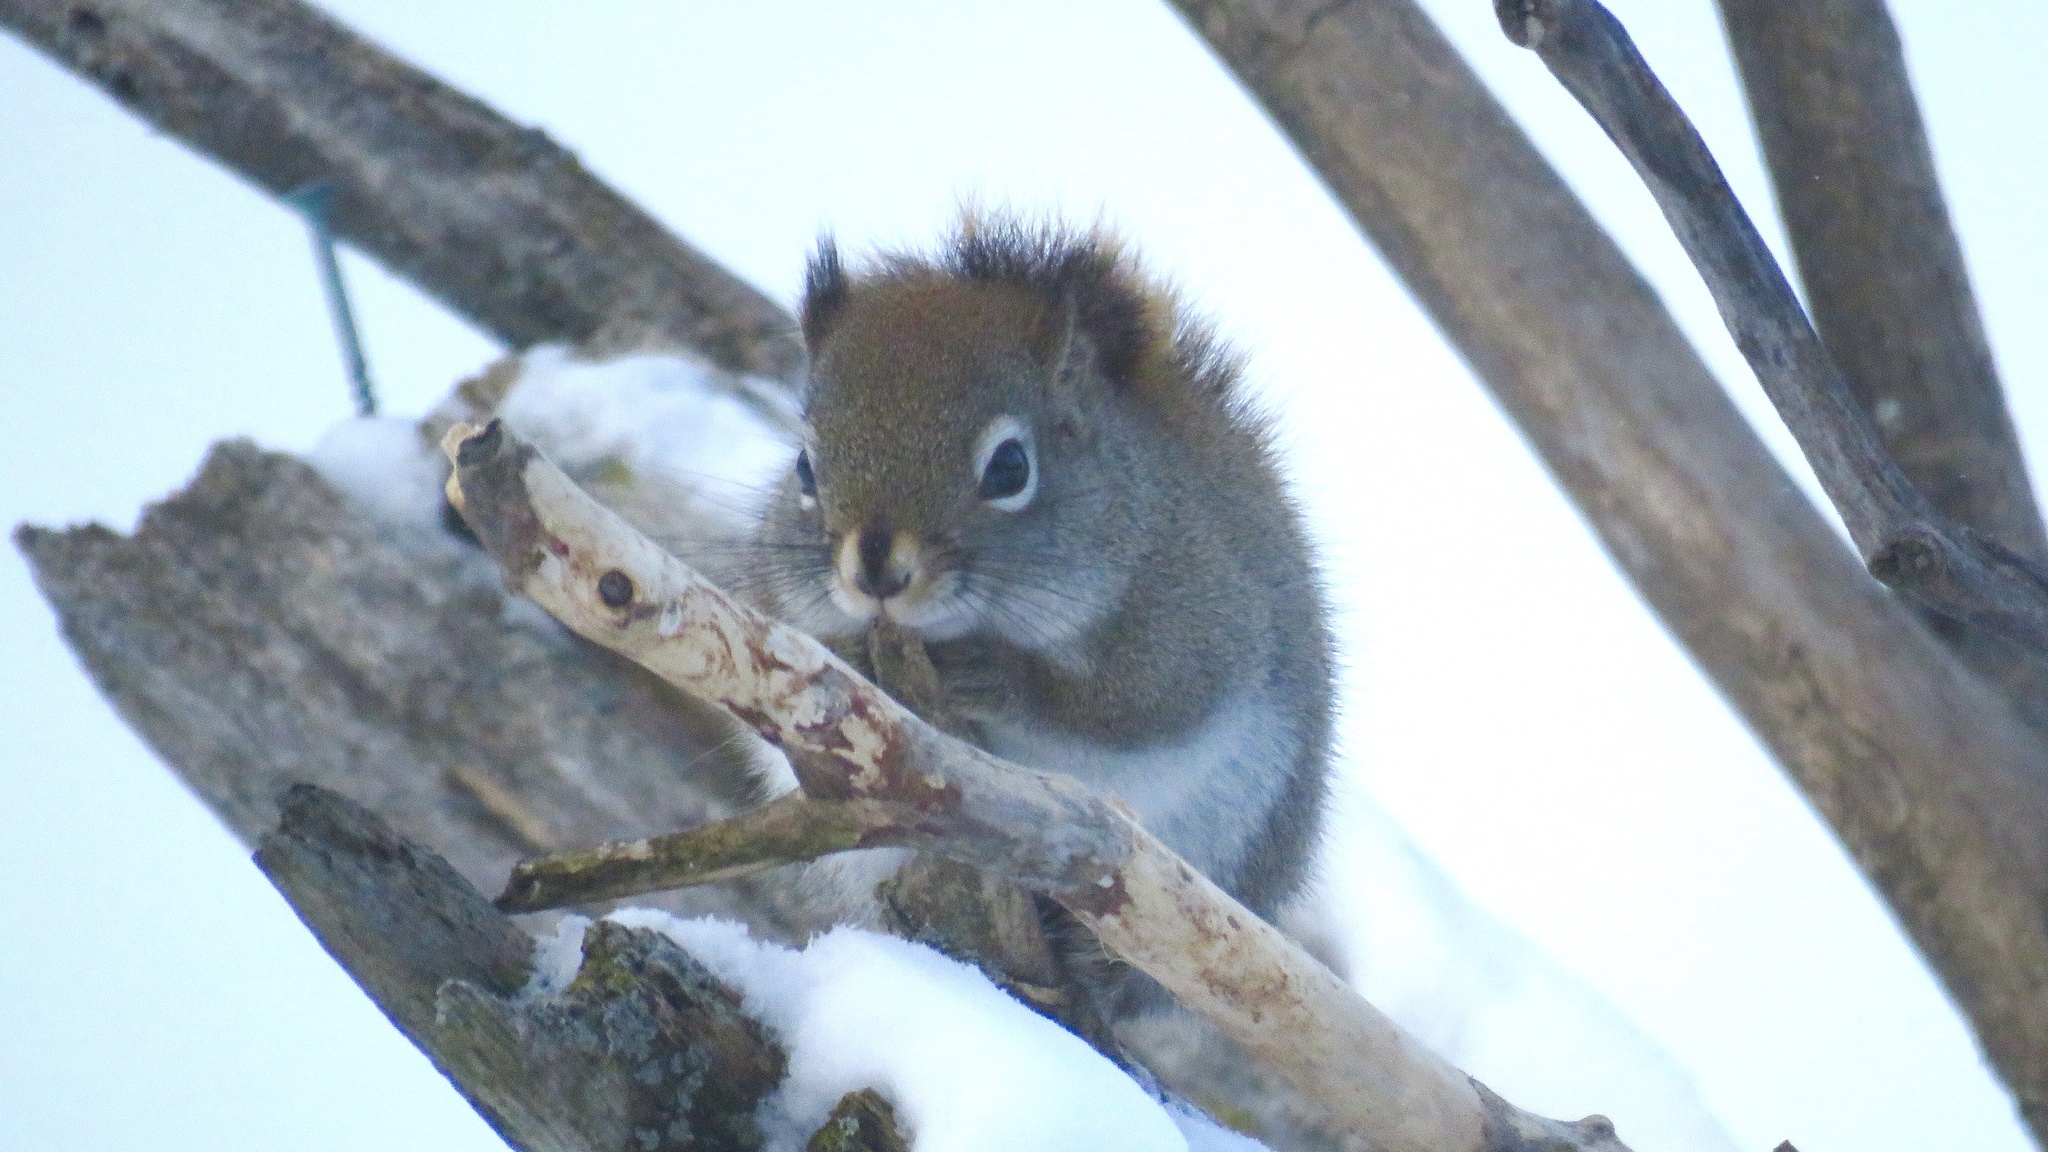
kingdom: Animalia
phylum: Chordata
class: Mammalia
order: Rodentia
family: Sciuridae
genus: Tamiasciurus
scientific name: Tamiasciurus hudsonicus
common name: Red squirrel
